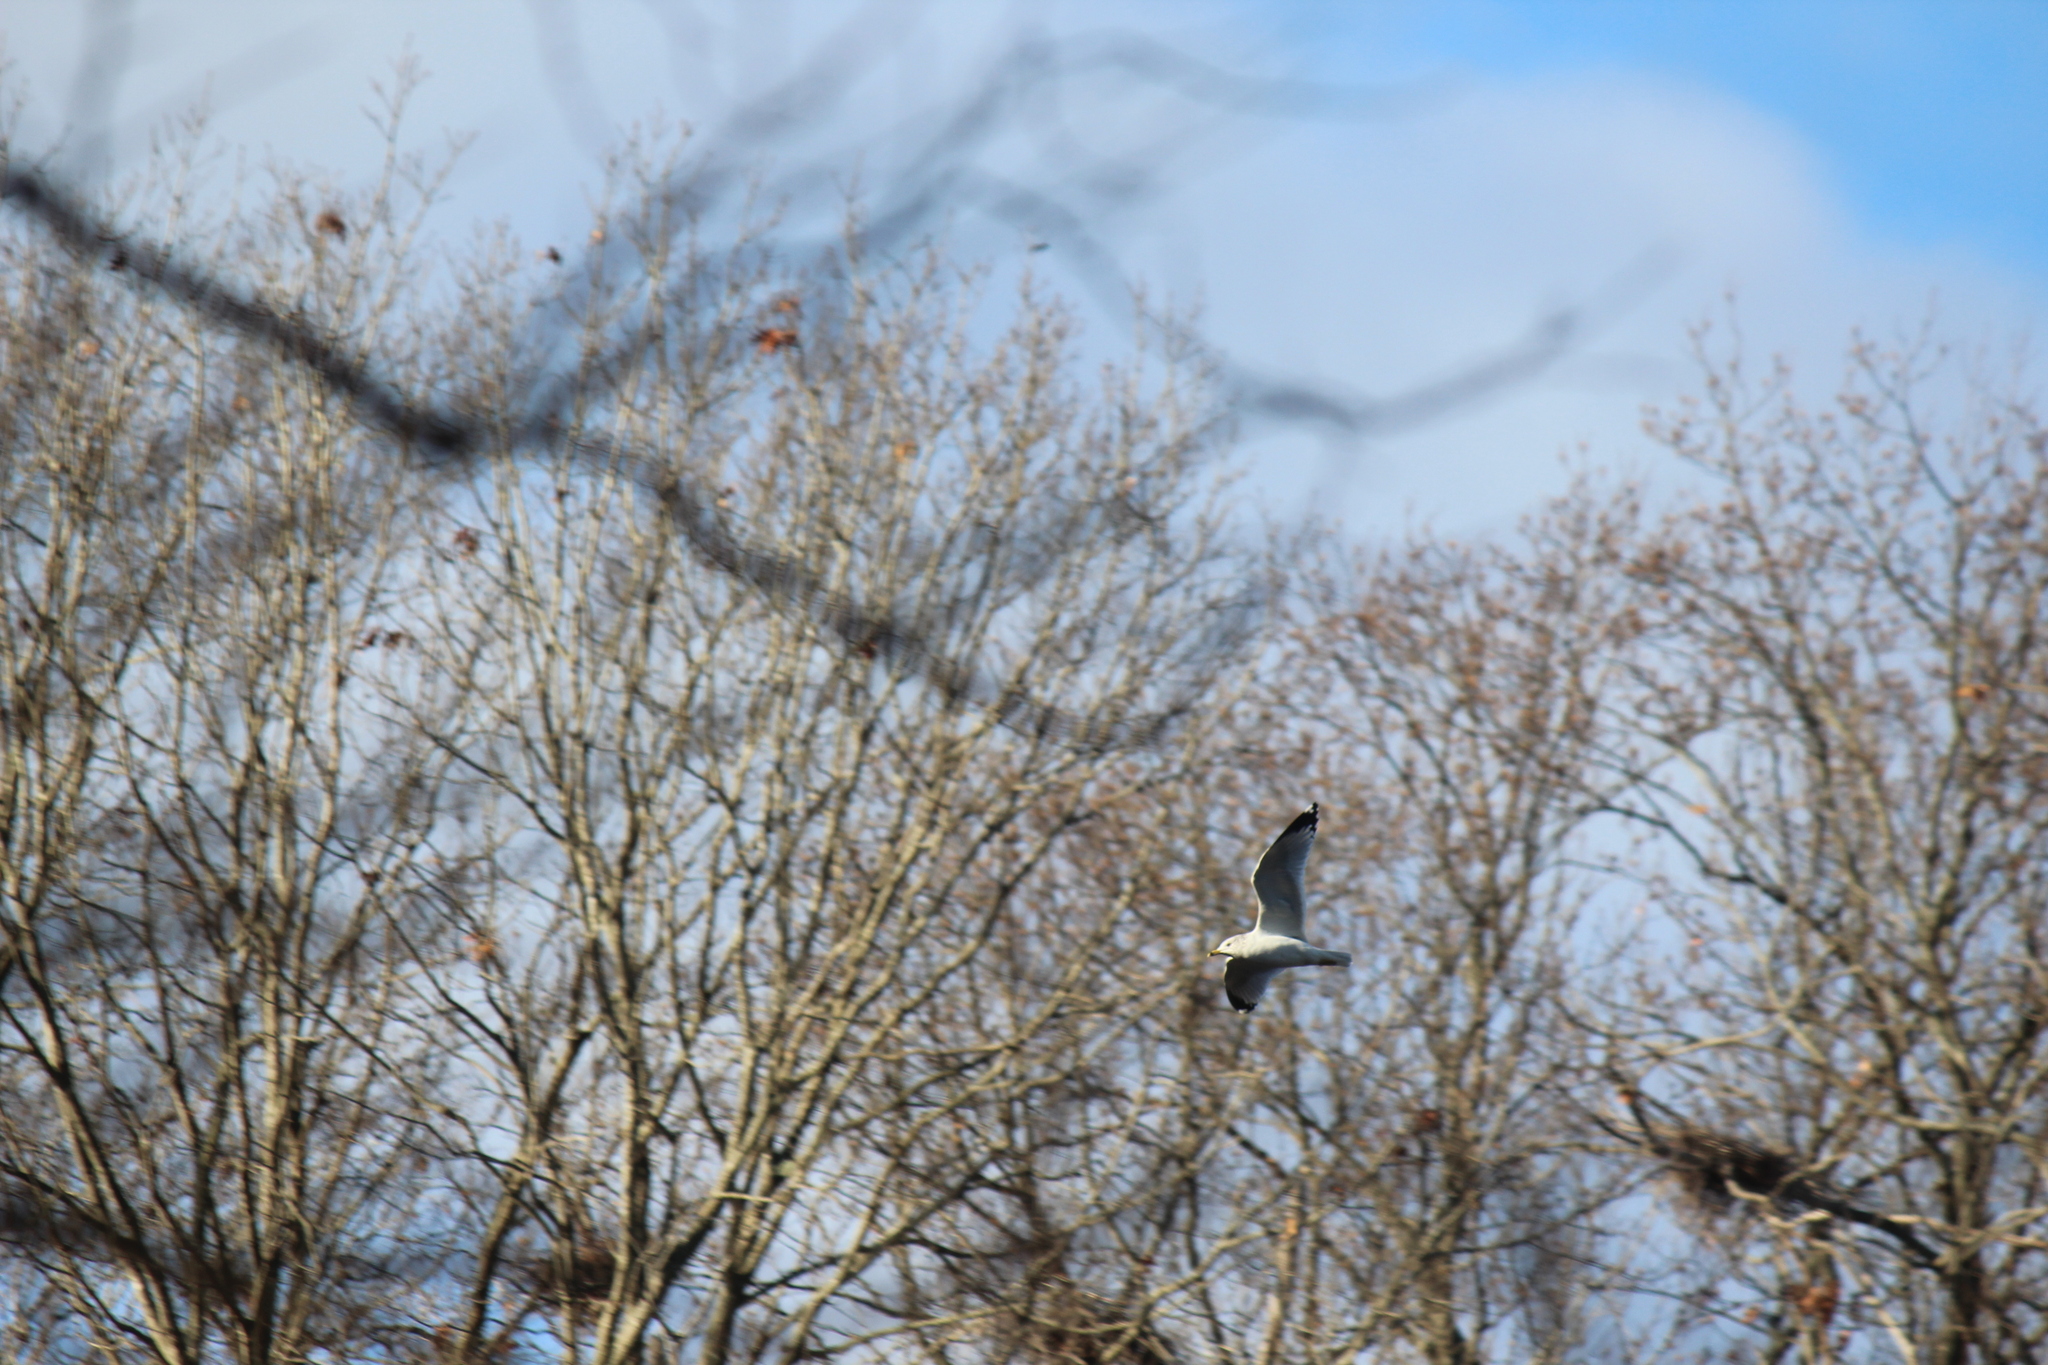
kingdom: Animalia
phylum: Chordata
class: Aves
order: Charadriiformes
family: Laridae
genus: Larus
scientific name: Larus delawarensis
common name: Ring-billed gull
